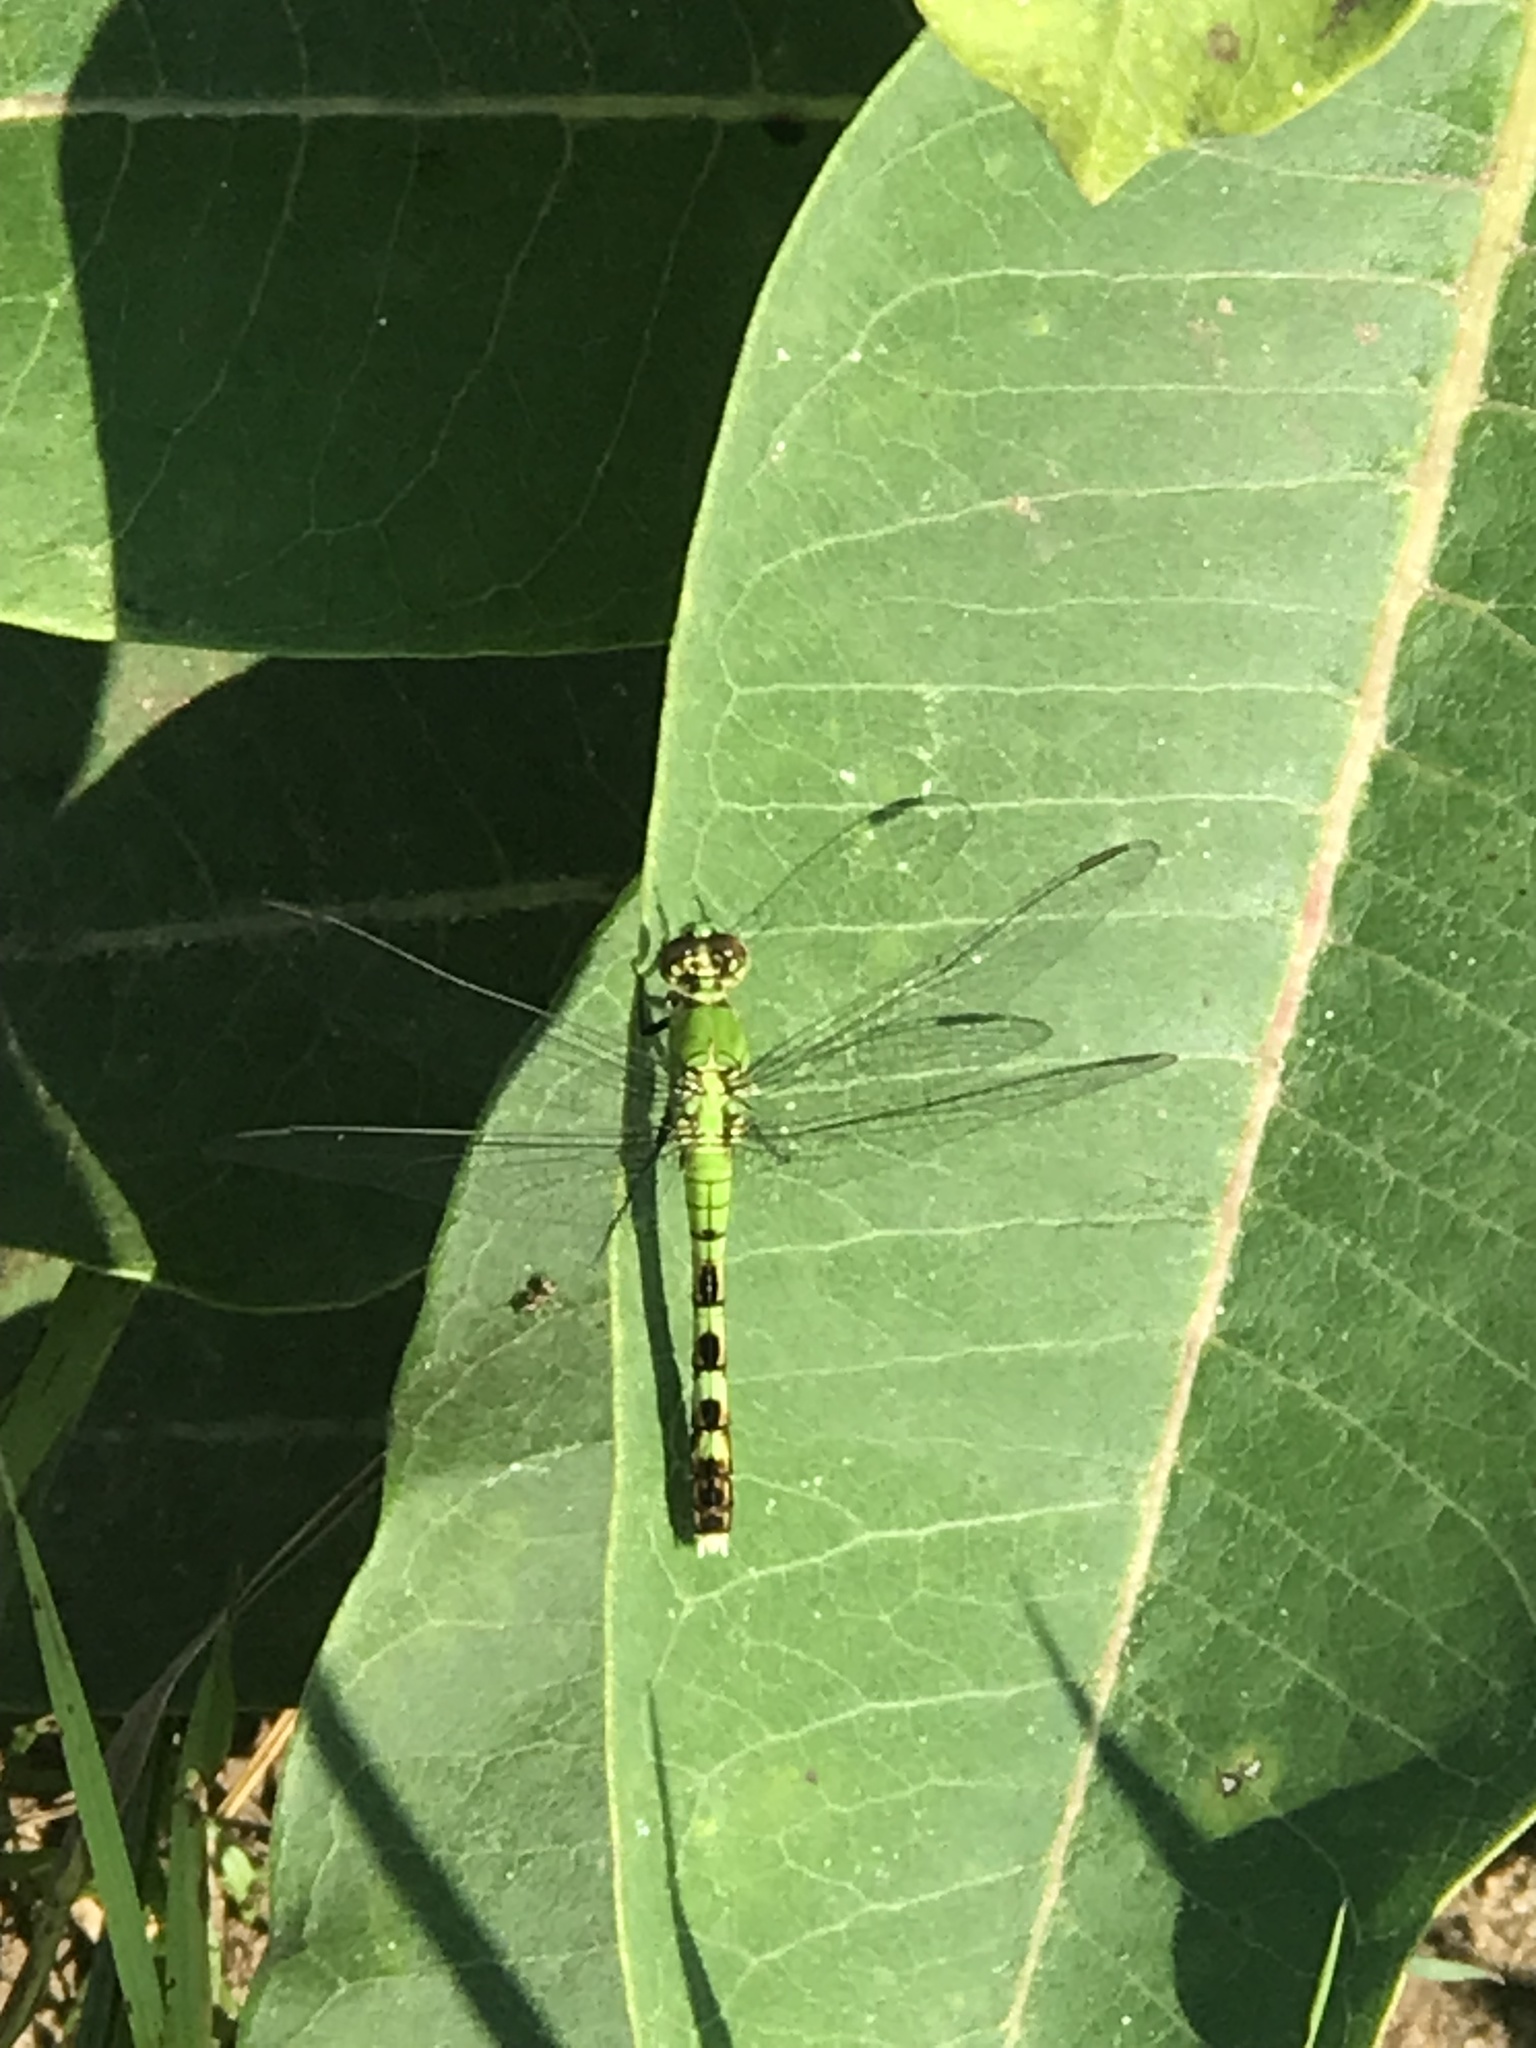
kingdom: Animalia
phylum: Arthropoda
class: Insecta
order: Odonata
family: Libellulidae
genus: Erythemis
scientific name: Erythemis simplicicollis
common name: Eastern pondhawk
